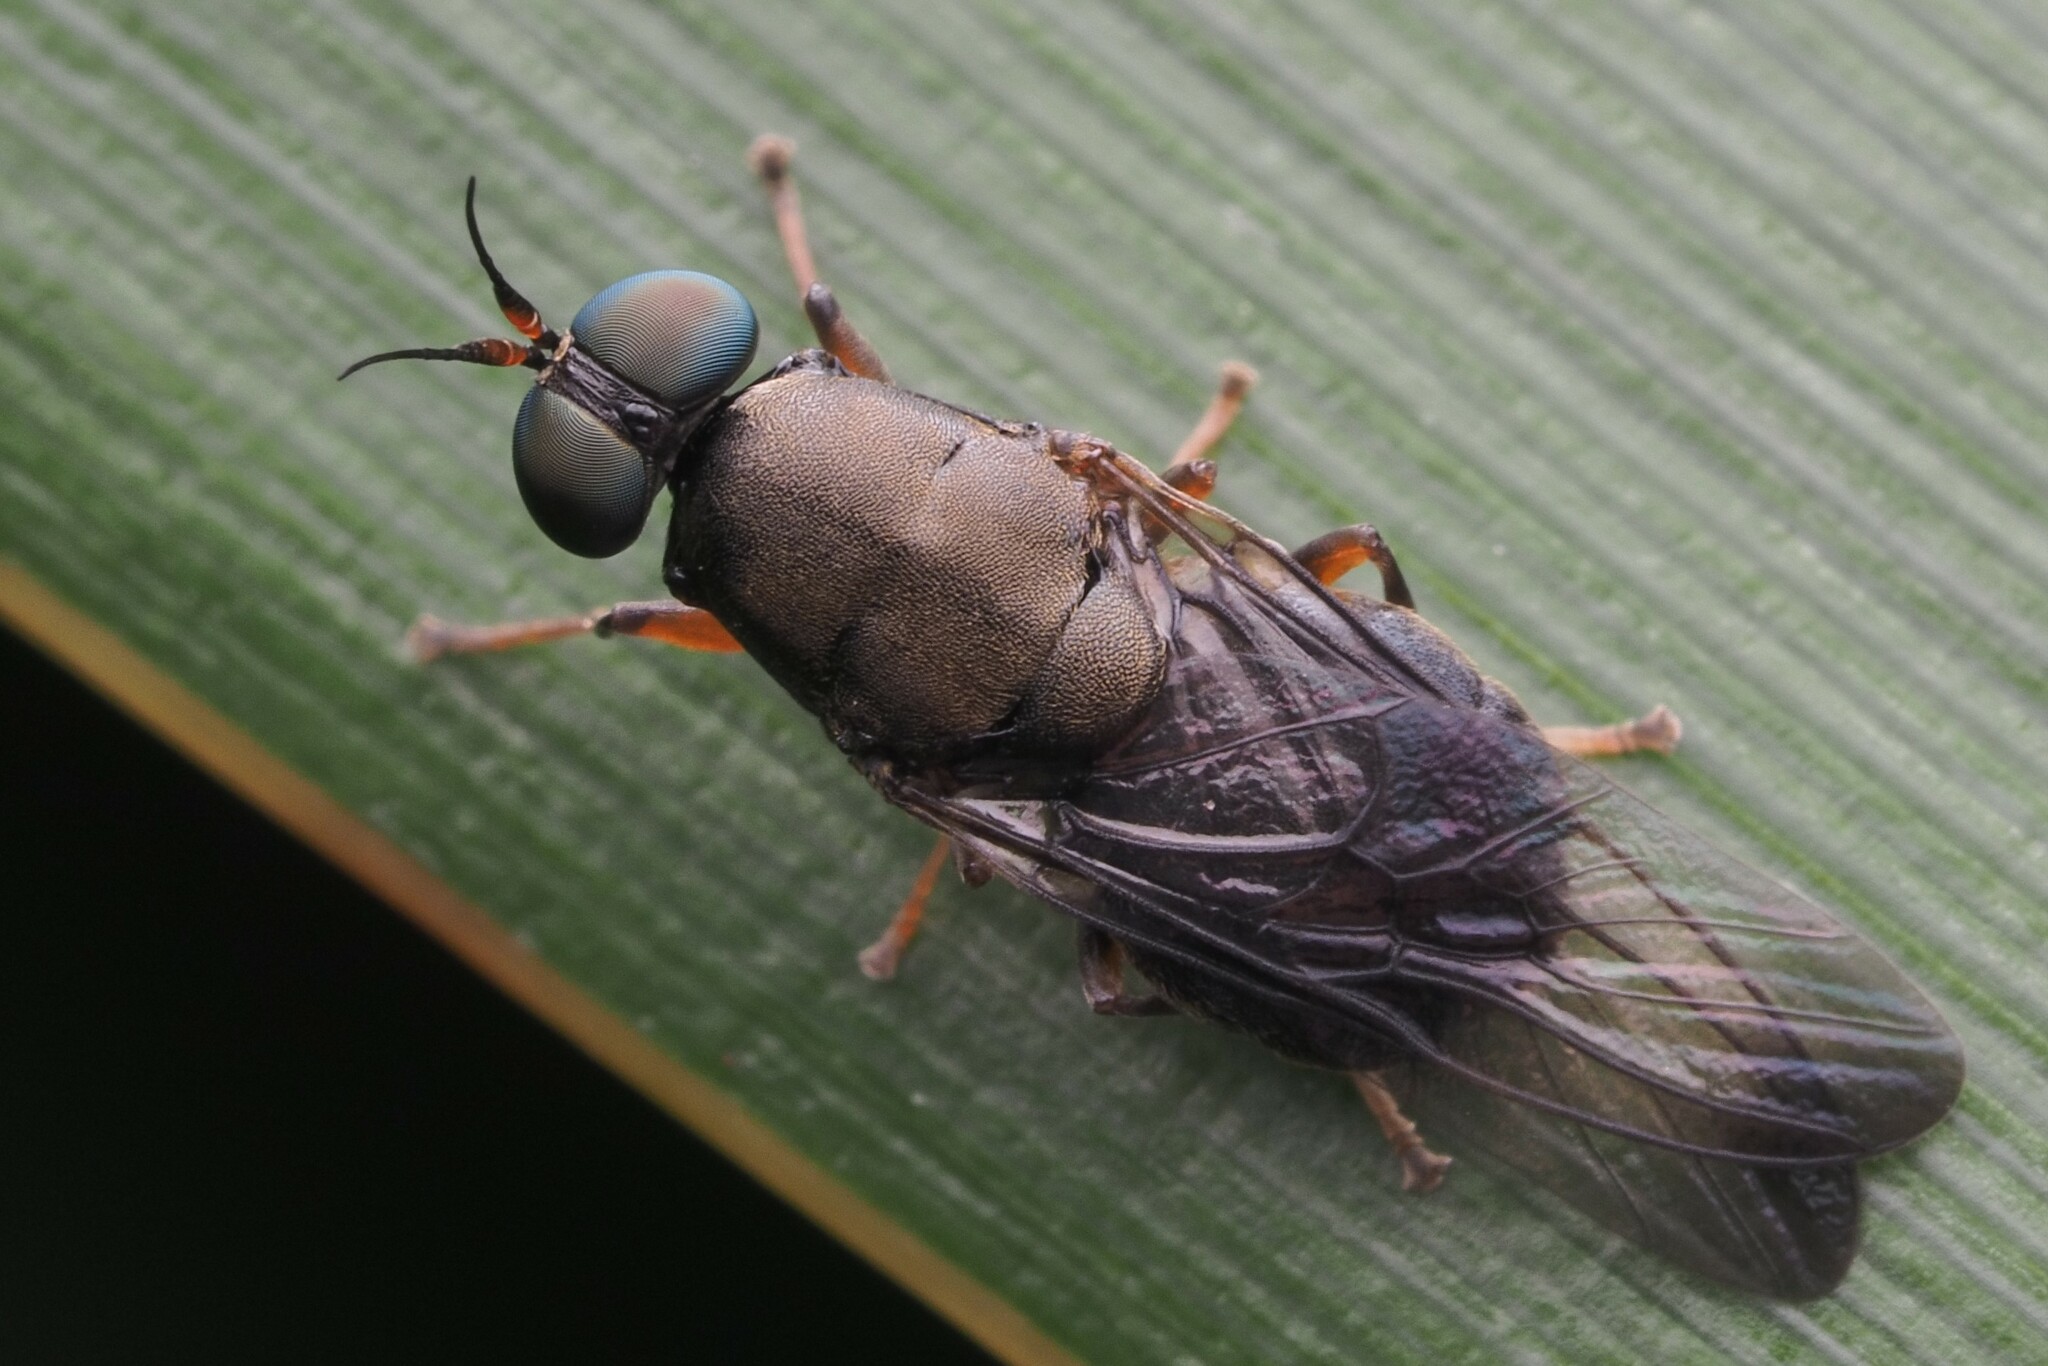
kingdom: Animalia
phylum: Arthropoda
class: Insecta
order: Diptera
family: Stratiomyidae
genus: Dysbiota
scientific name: Dysbiota peregrina
